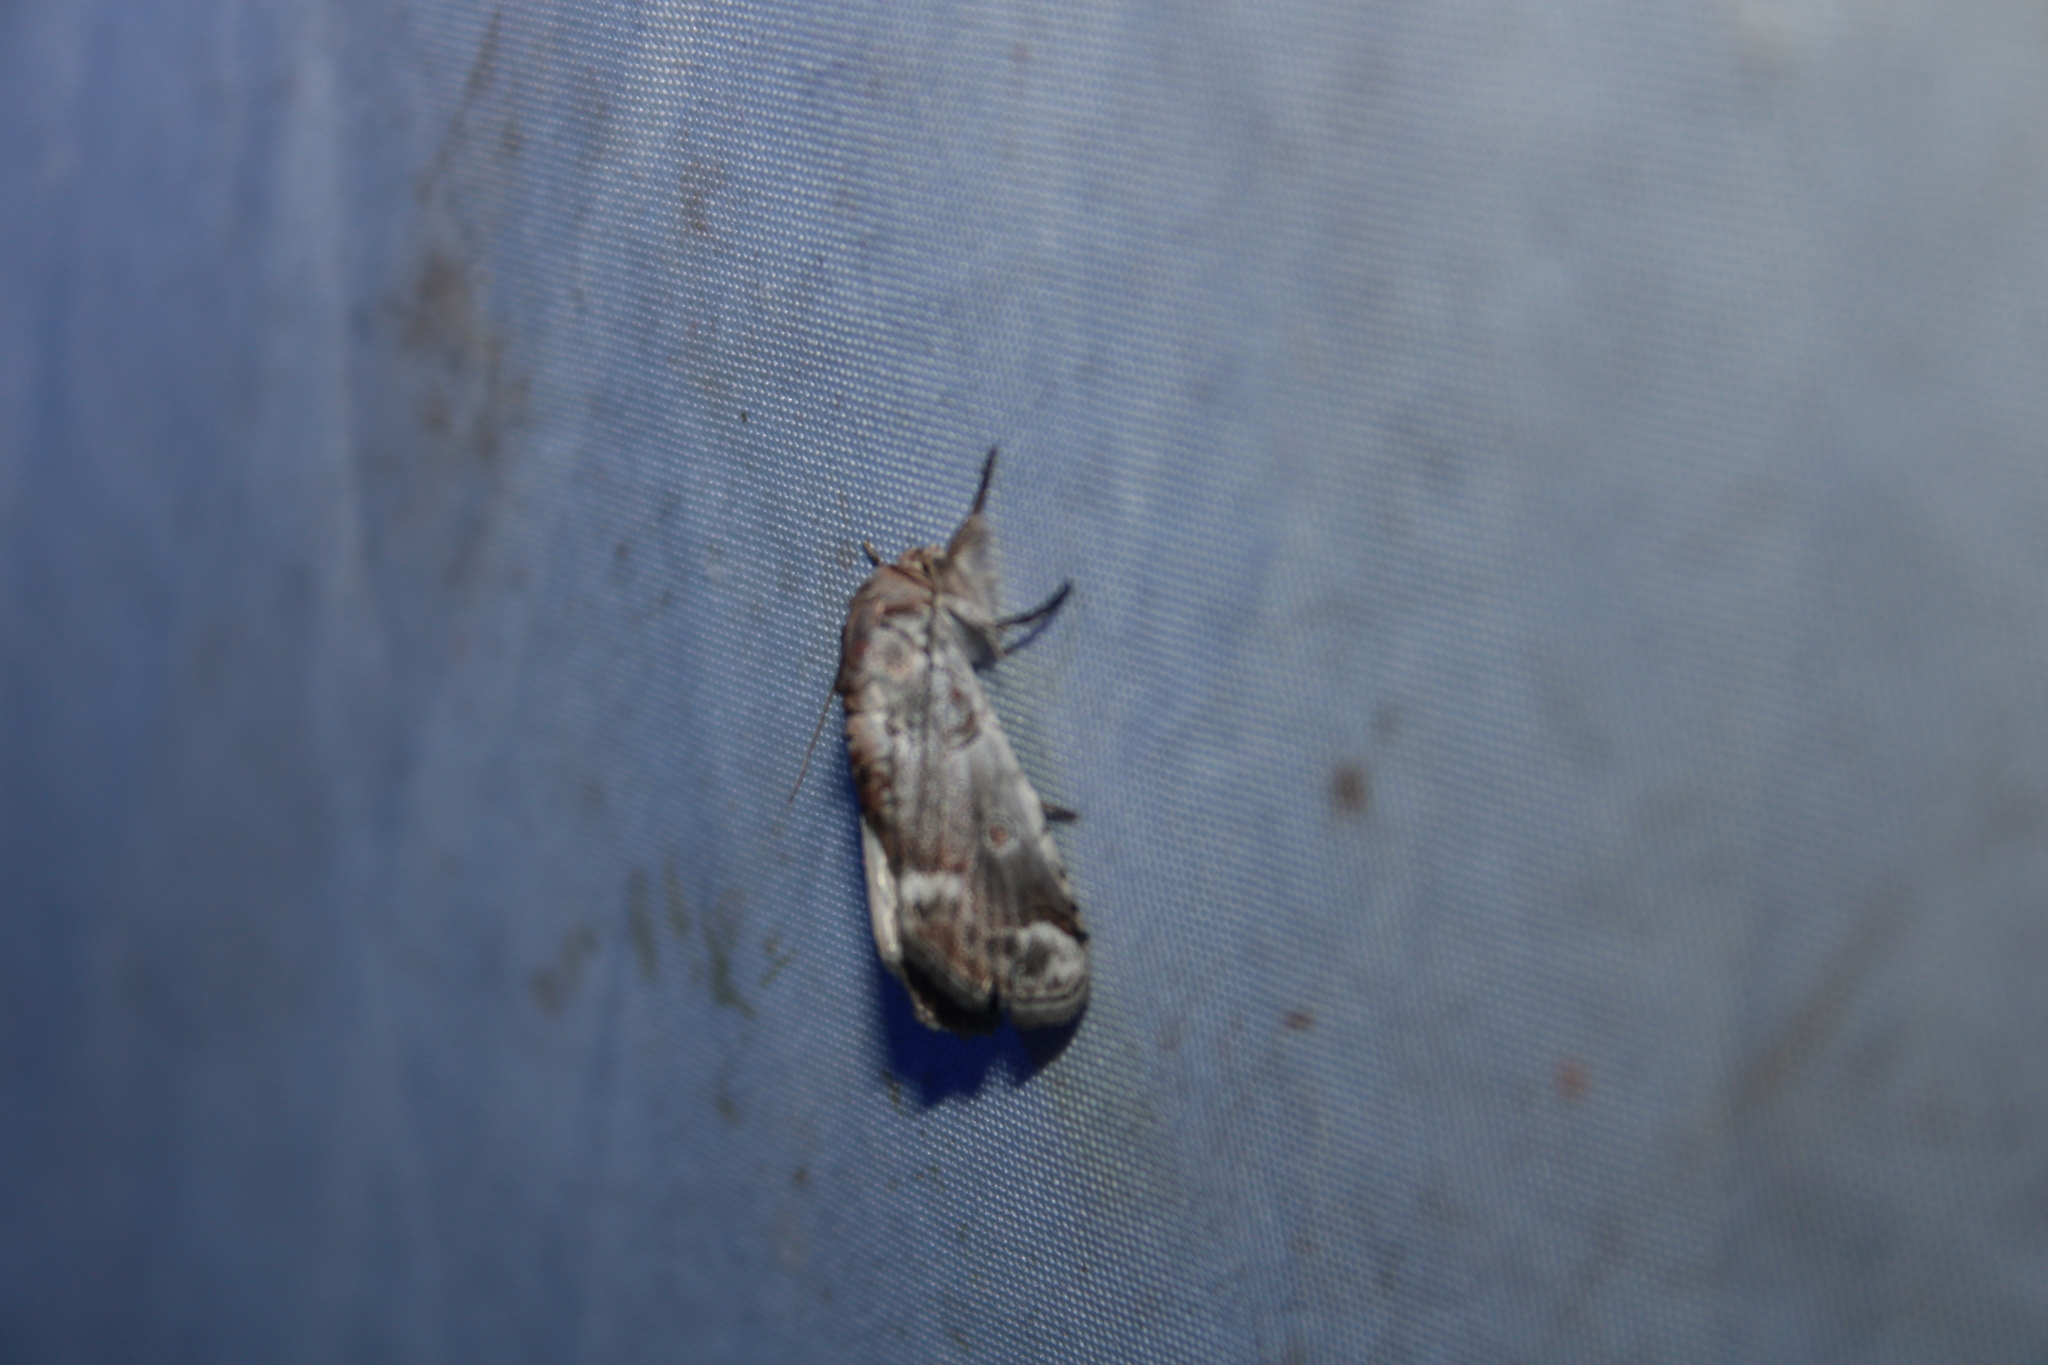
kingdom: Animalia
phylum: Arthropoda
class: Insecta
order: Lepidoptera
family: Nolidae
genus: Motya
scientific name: Motya
